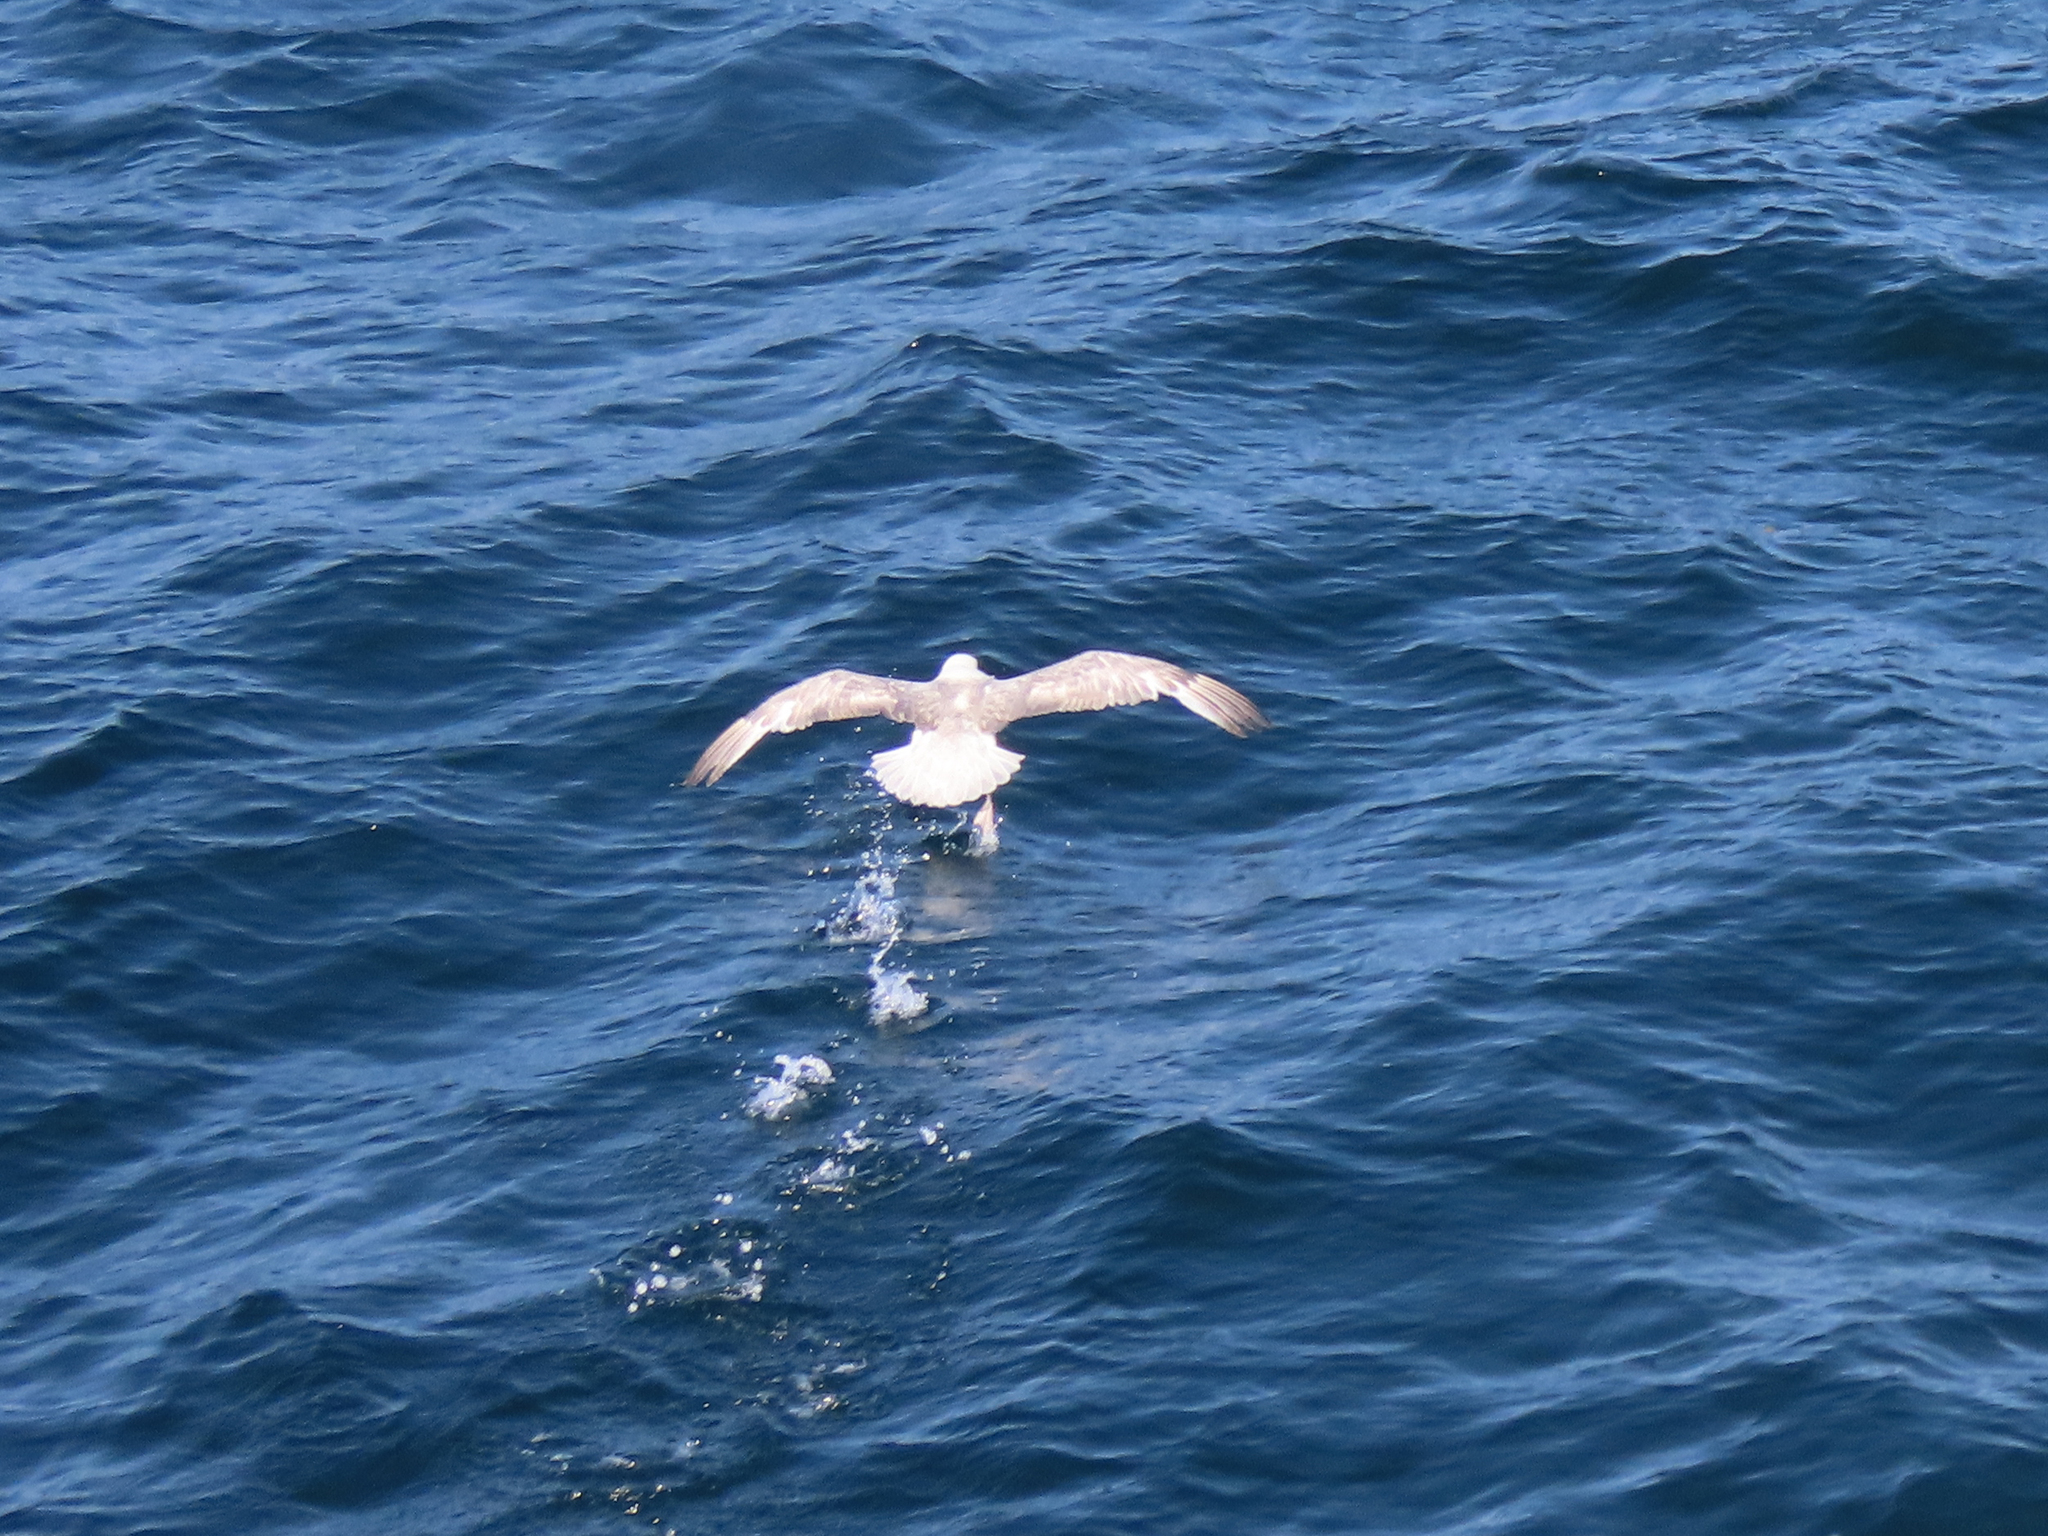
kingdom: Animalia
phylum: Chordata
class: Aves
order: Procellariiformes
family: Procellariidae
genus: Fulmarus
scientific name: Fulmarus glacialis
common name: Northern fulmar
